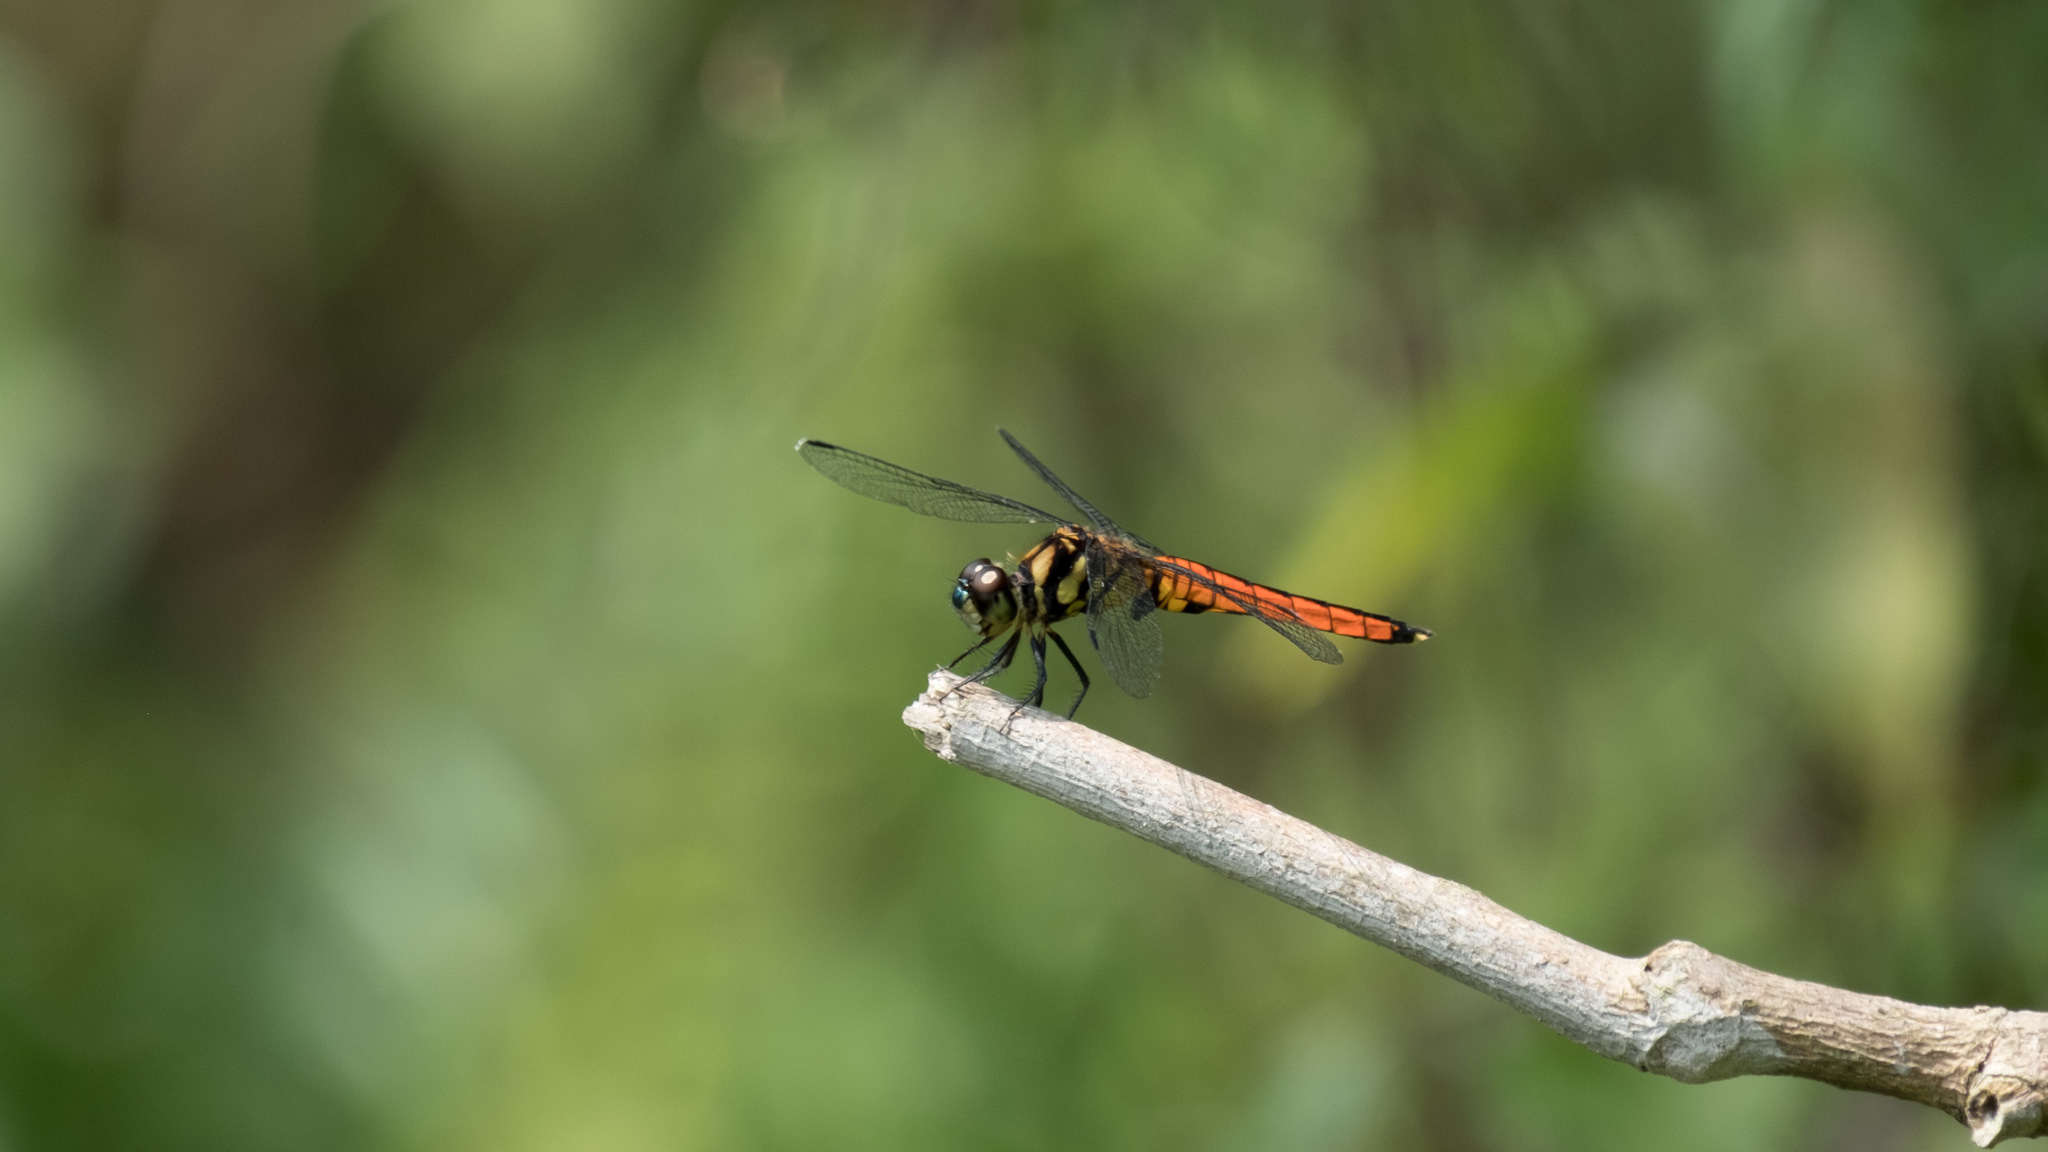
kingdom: Animalia
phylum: Arthropoda
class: Insecta
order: Odonata
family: Libellulidae
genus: Lyriothemis
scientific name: Lyriothemis elegantissima
